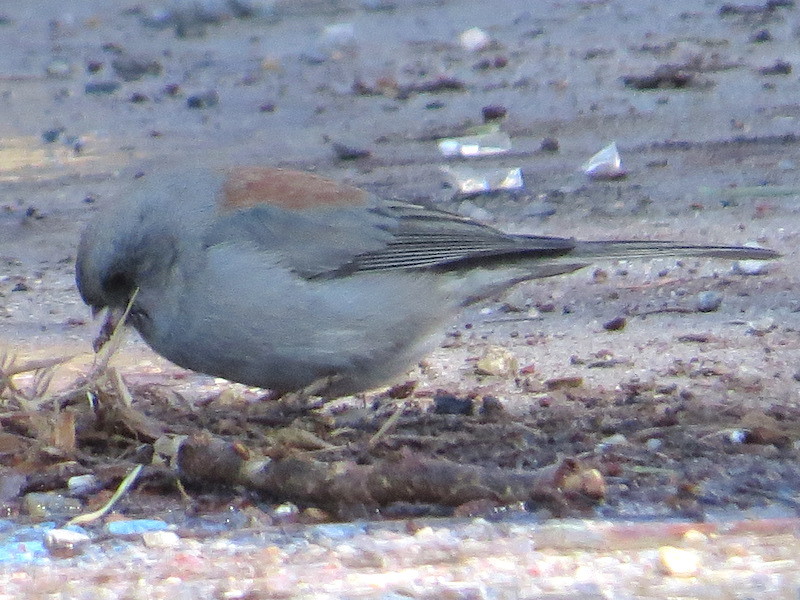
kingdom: Animalia
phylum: Chordata
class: Aves
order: Passeriformes
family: Passerellidae
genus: Junco
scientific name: Junco hyemalis
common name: Dark-eyed junco
